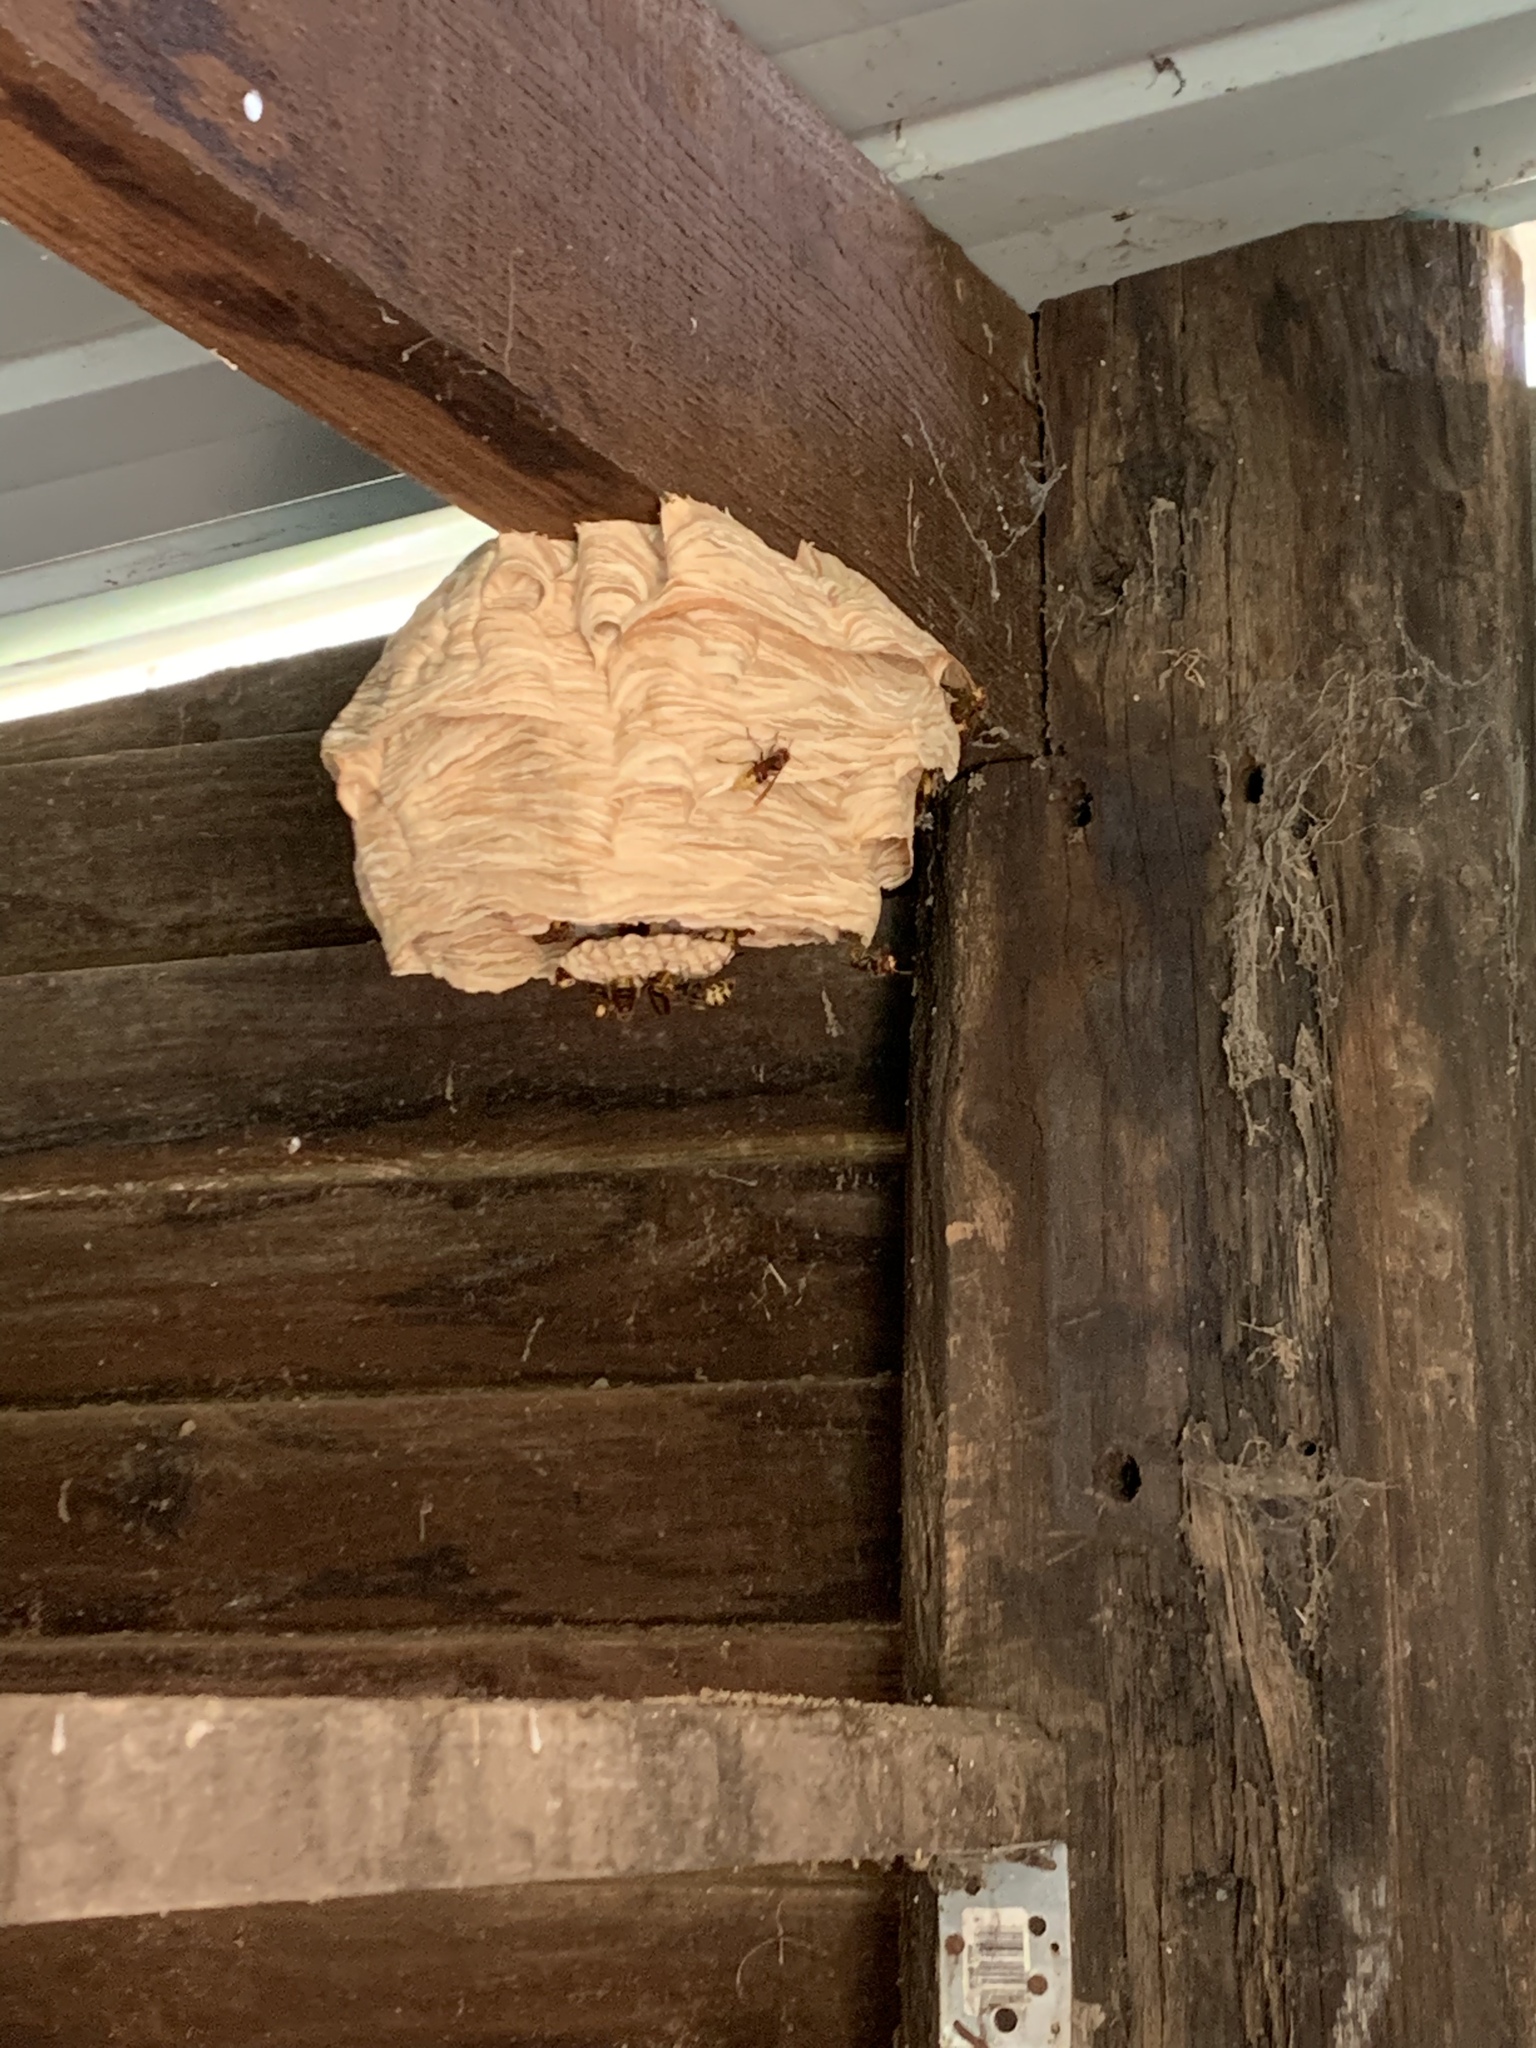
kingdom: Animalia
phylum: Arthropoda
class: Insecta
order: Hymenoptera
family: Vespidae
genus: Vespa
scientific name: Vespa crabro
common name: Hornet
